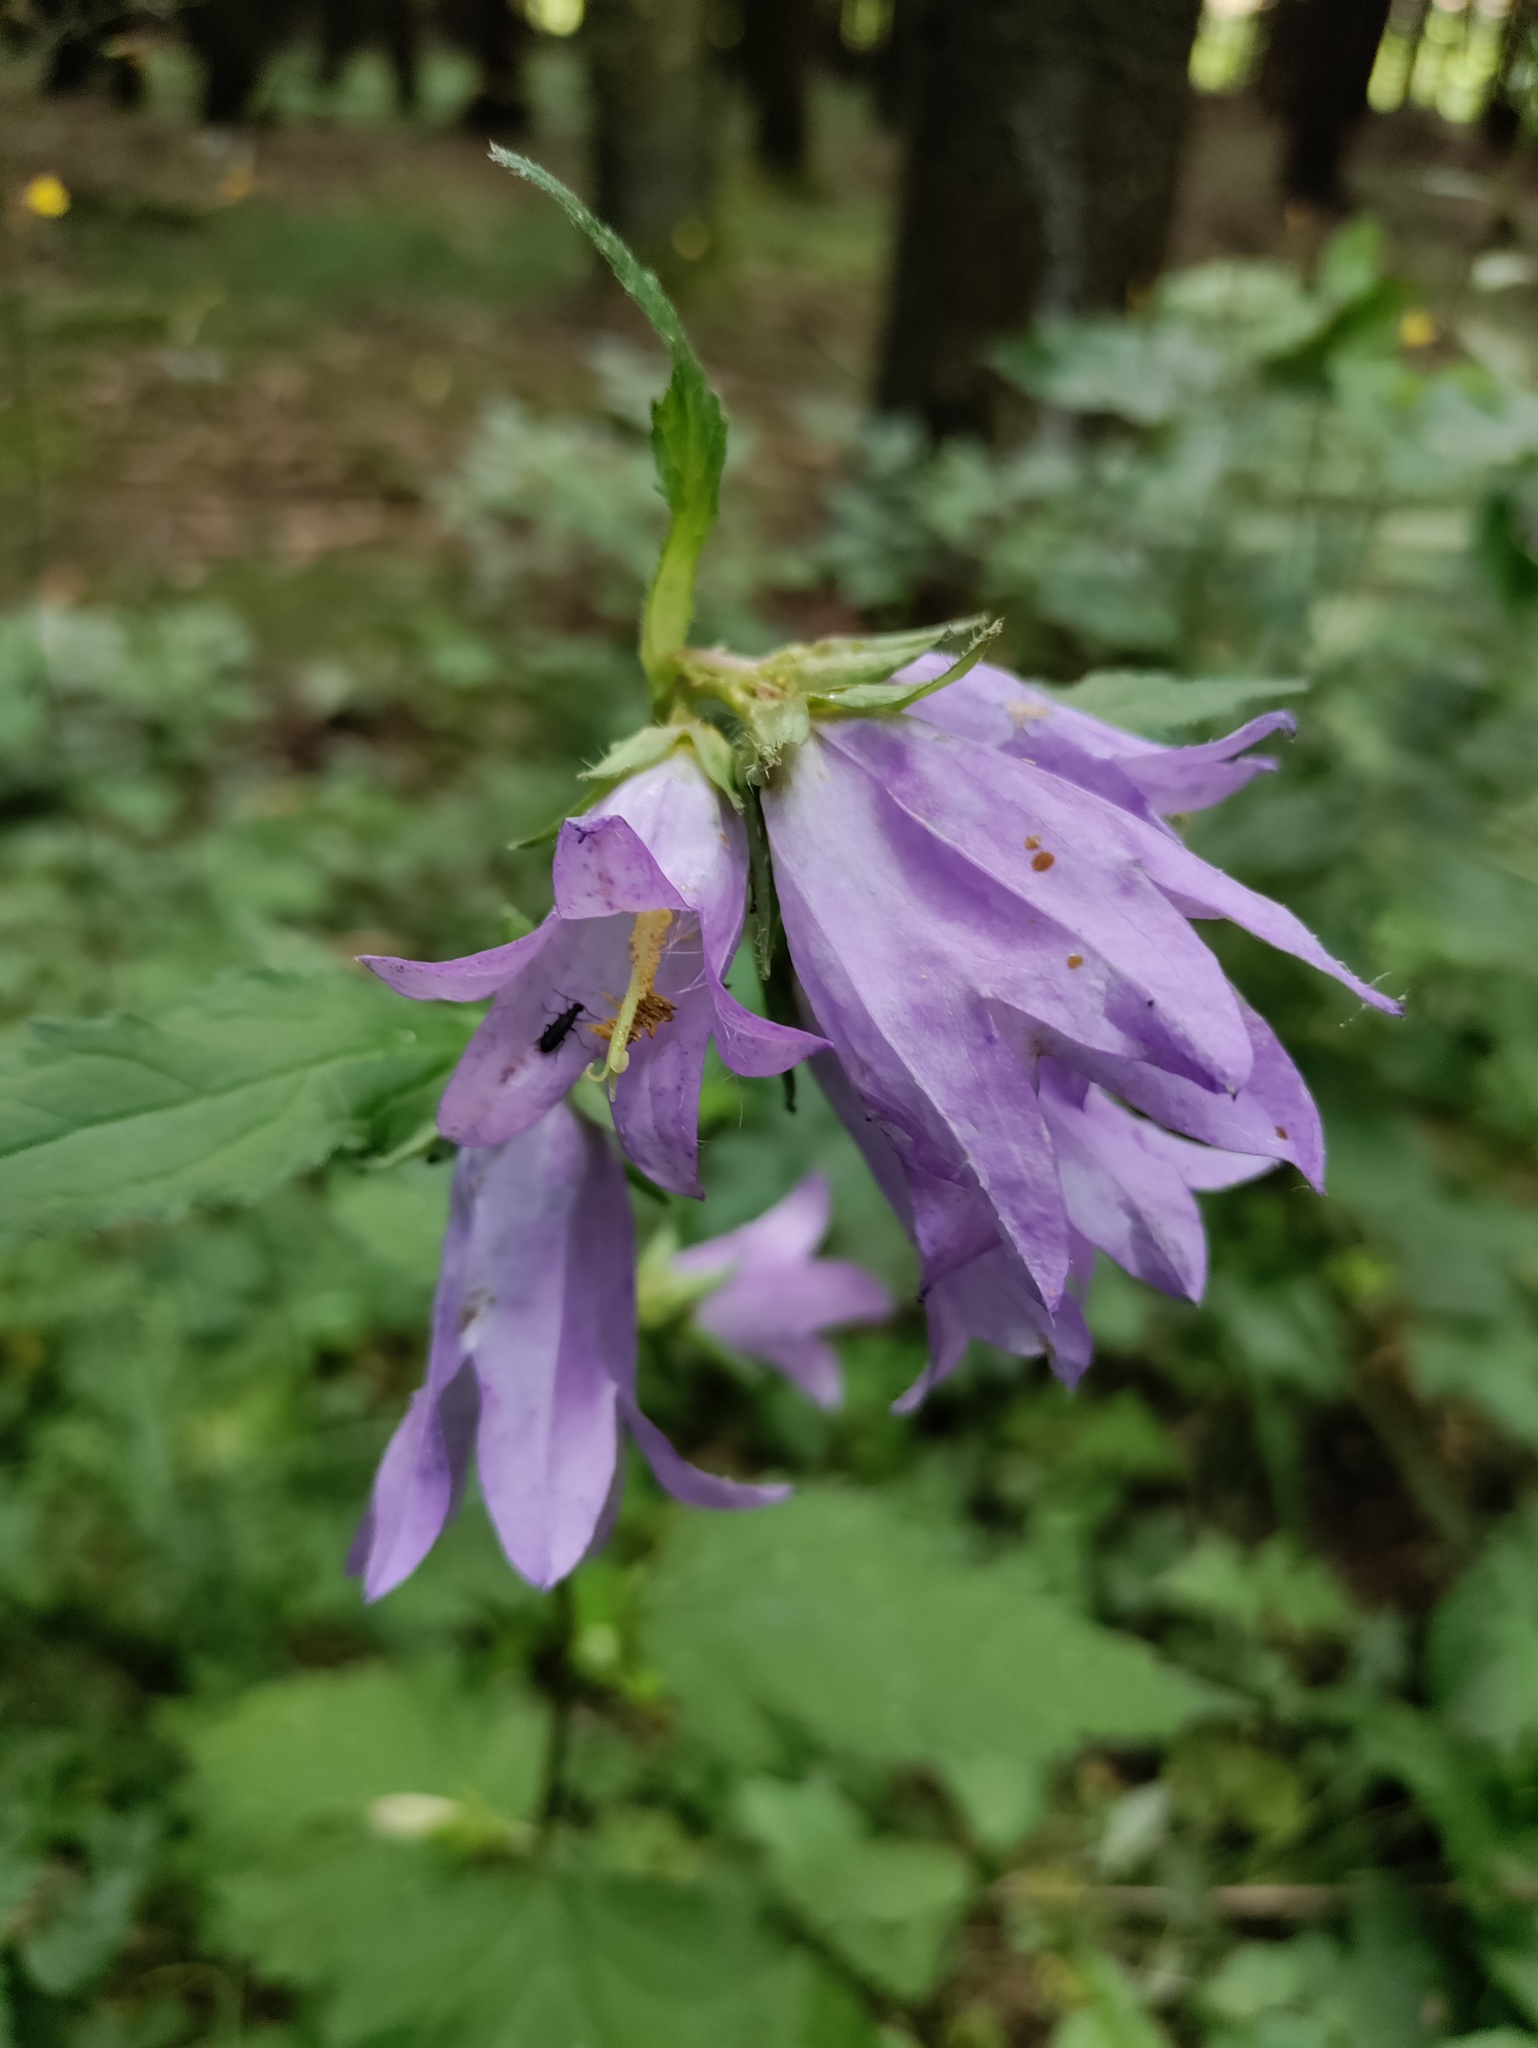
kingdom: Plantae
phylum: Tracheophyta
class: Magnoliopsida
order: Asterales
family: Campanulaceae
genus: Campanula
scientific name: Campanula trachelium
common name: Nettle-leaved bellflower
